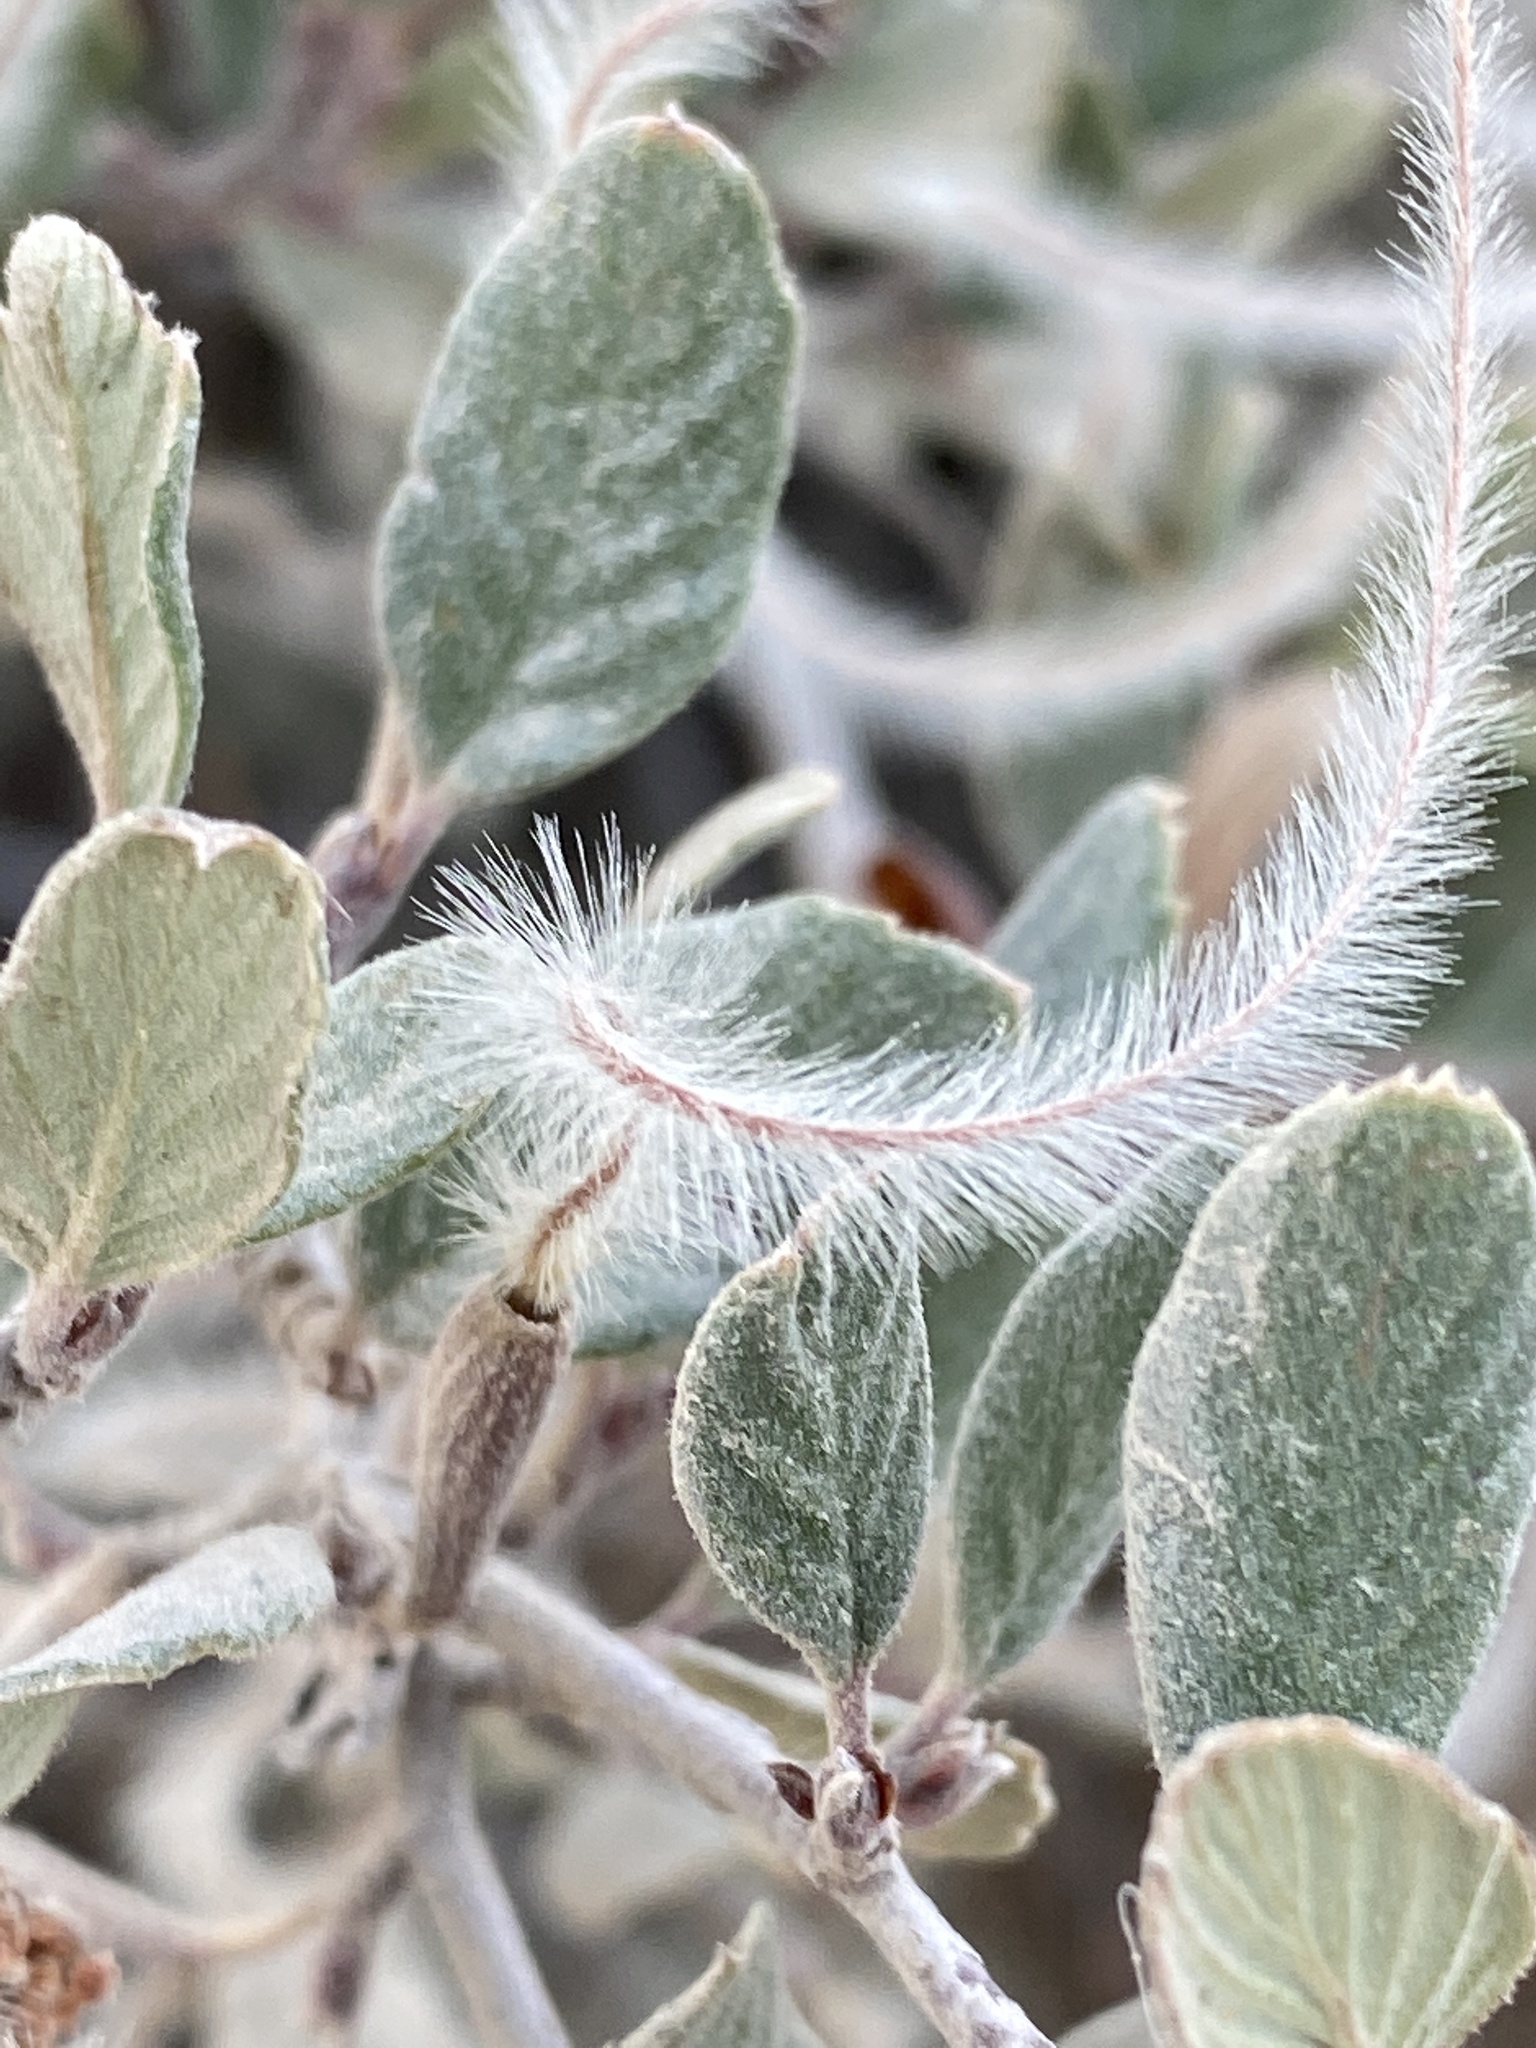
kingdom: Plantae
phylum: Tracheophyta
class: Magnoliopsida
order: Rosales
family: Rosaceae
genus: Cercocarpus
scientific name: Cercocarpus betuloides
